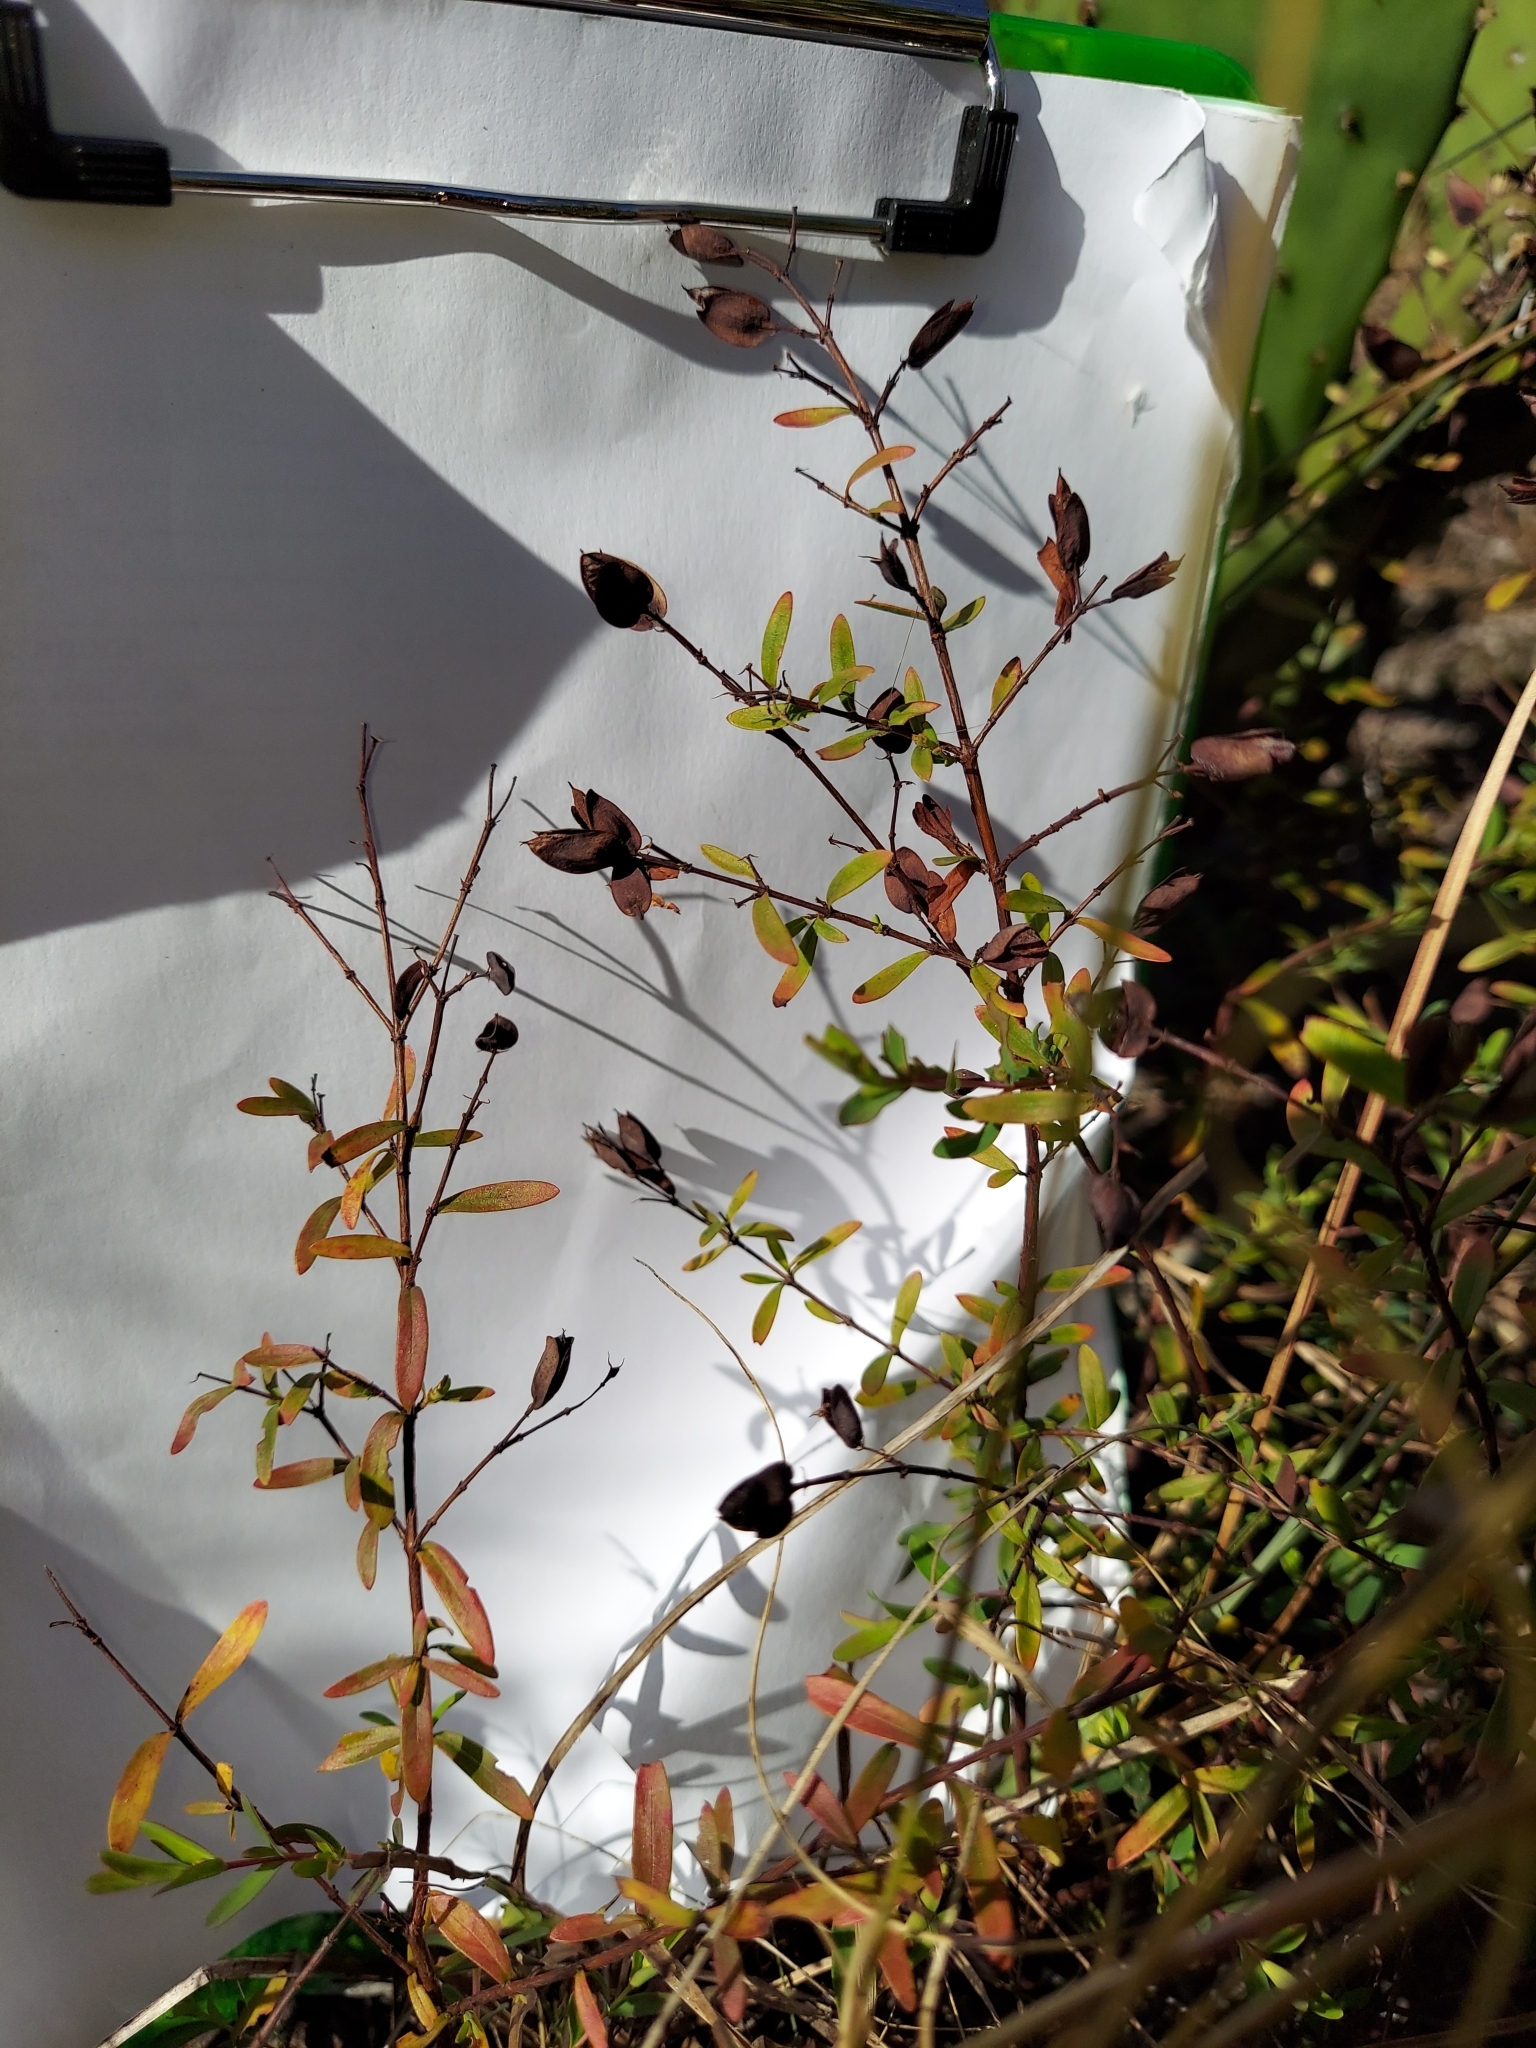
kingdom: Plantae
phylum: Tracheophyta
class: Magnoliopsida
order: Malpighiales
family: Hypericaceae
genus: Hypericum
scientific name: Hypericum hypericoides
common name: St. andrew's cross
